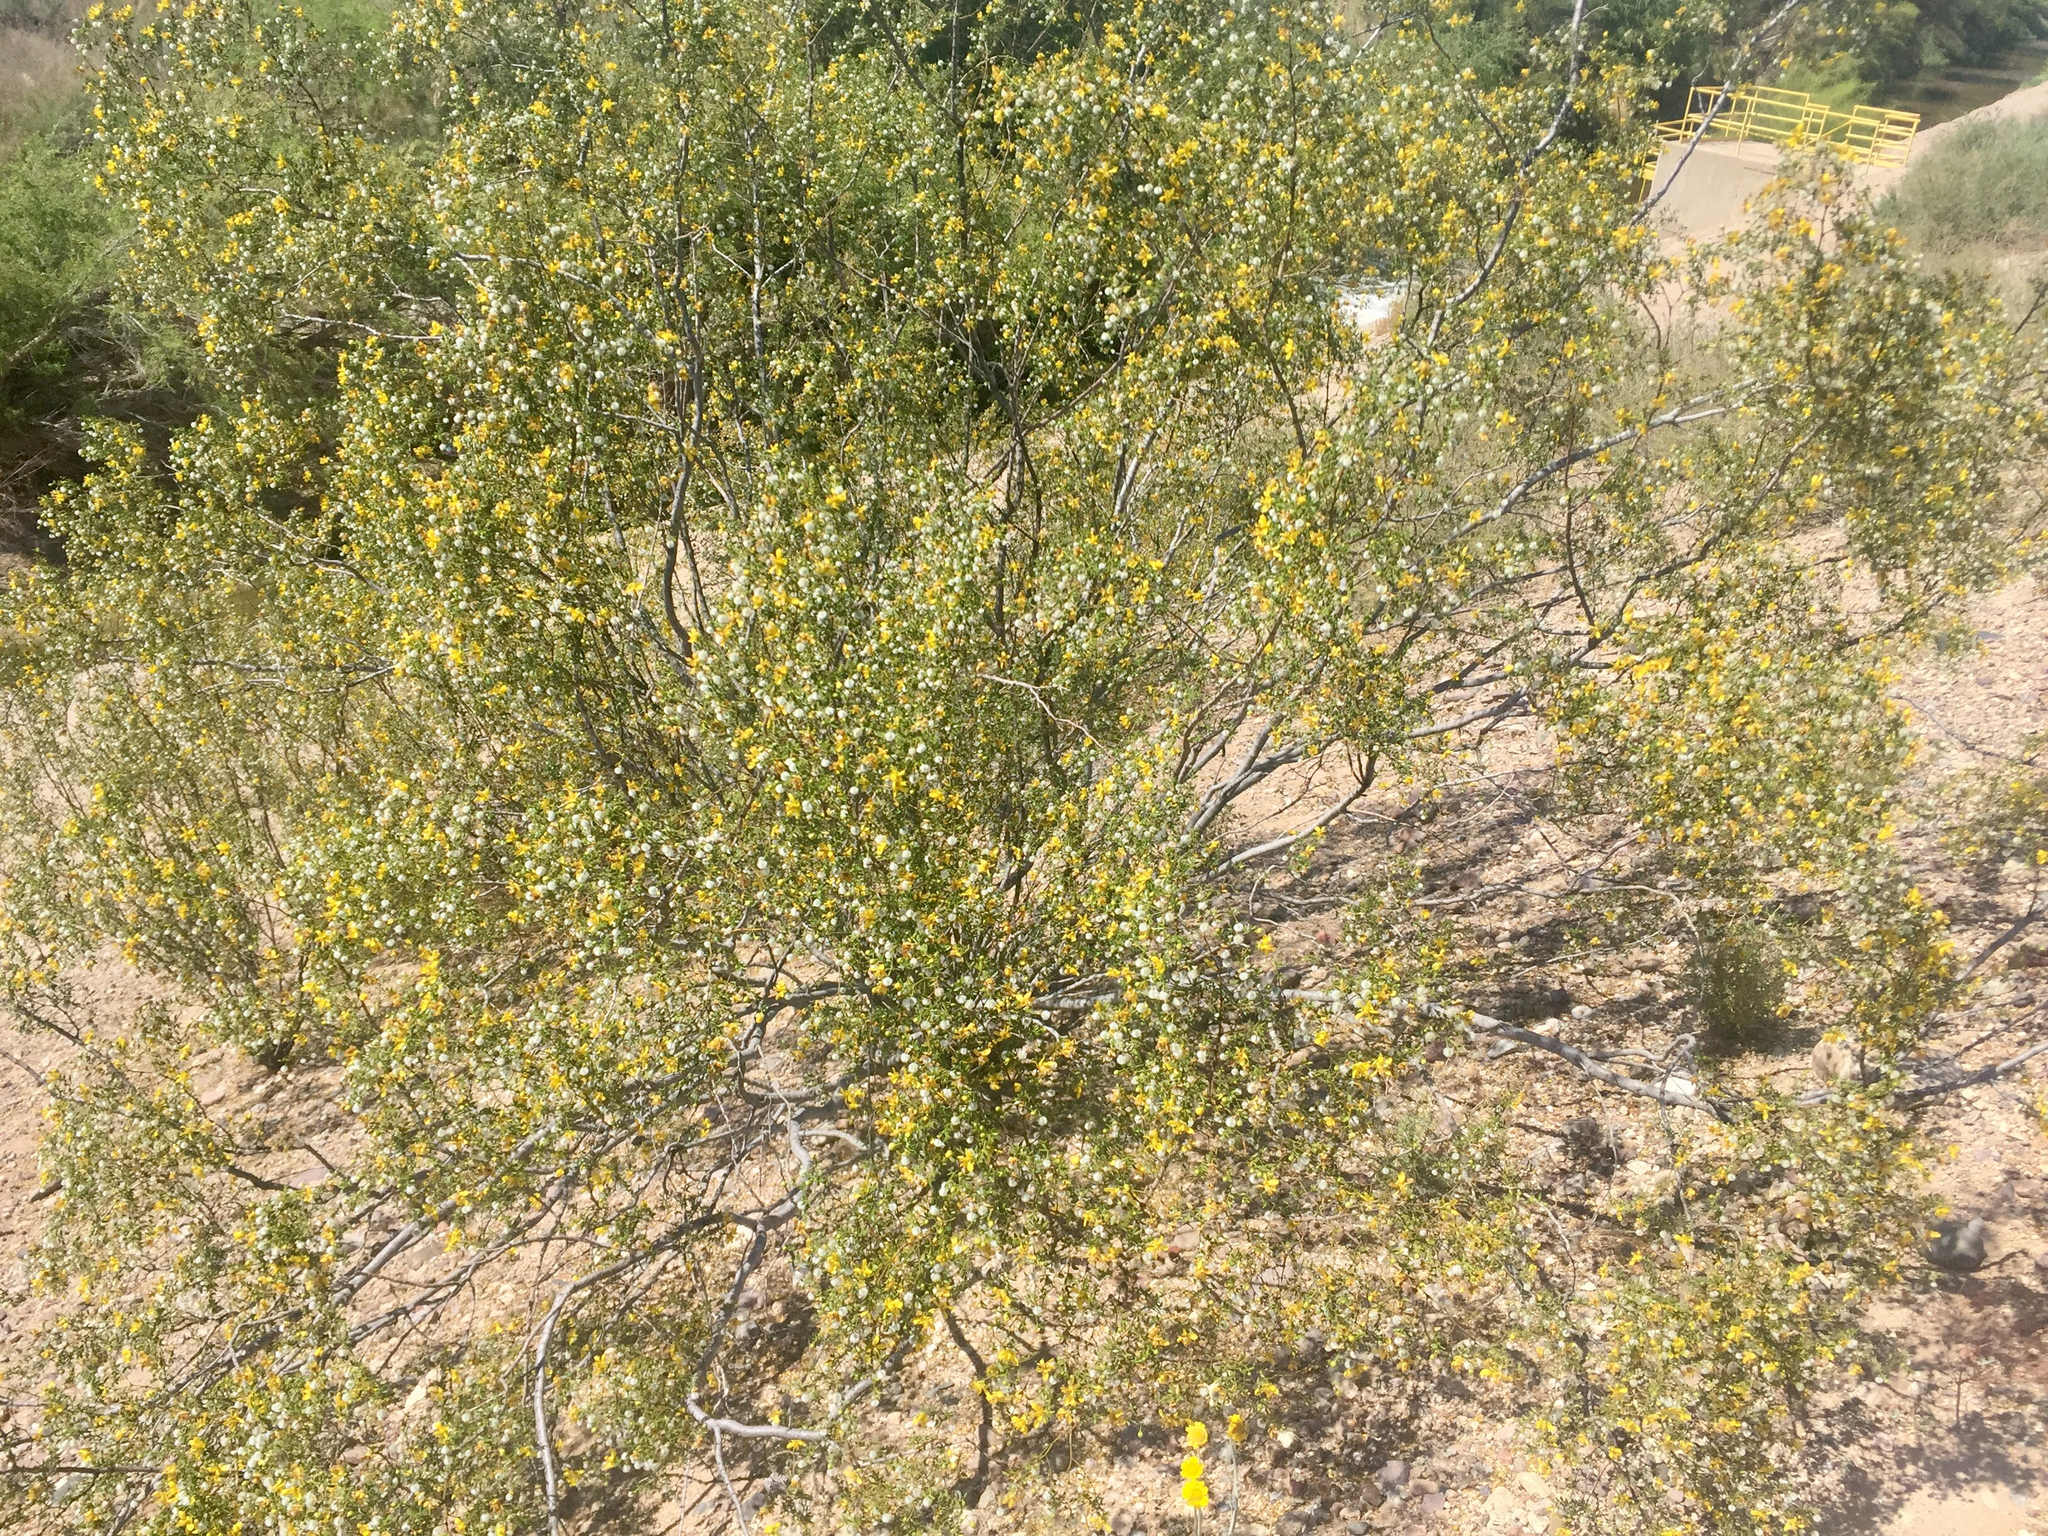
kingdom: Plantae
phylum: Tracheophyta
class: Magnoliopsida
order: Zygophyllales
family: Zygophyllaceae
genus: Larrea
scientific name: Larrea tridentata
